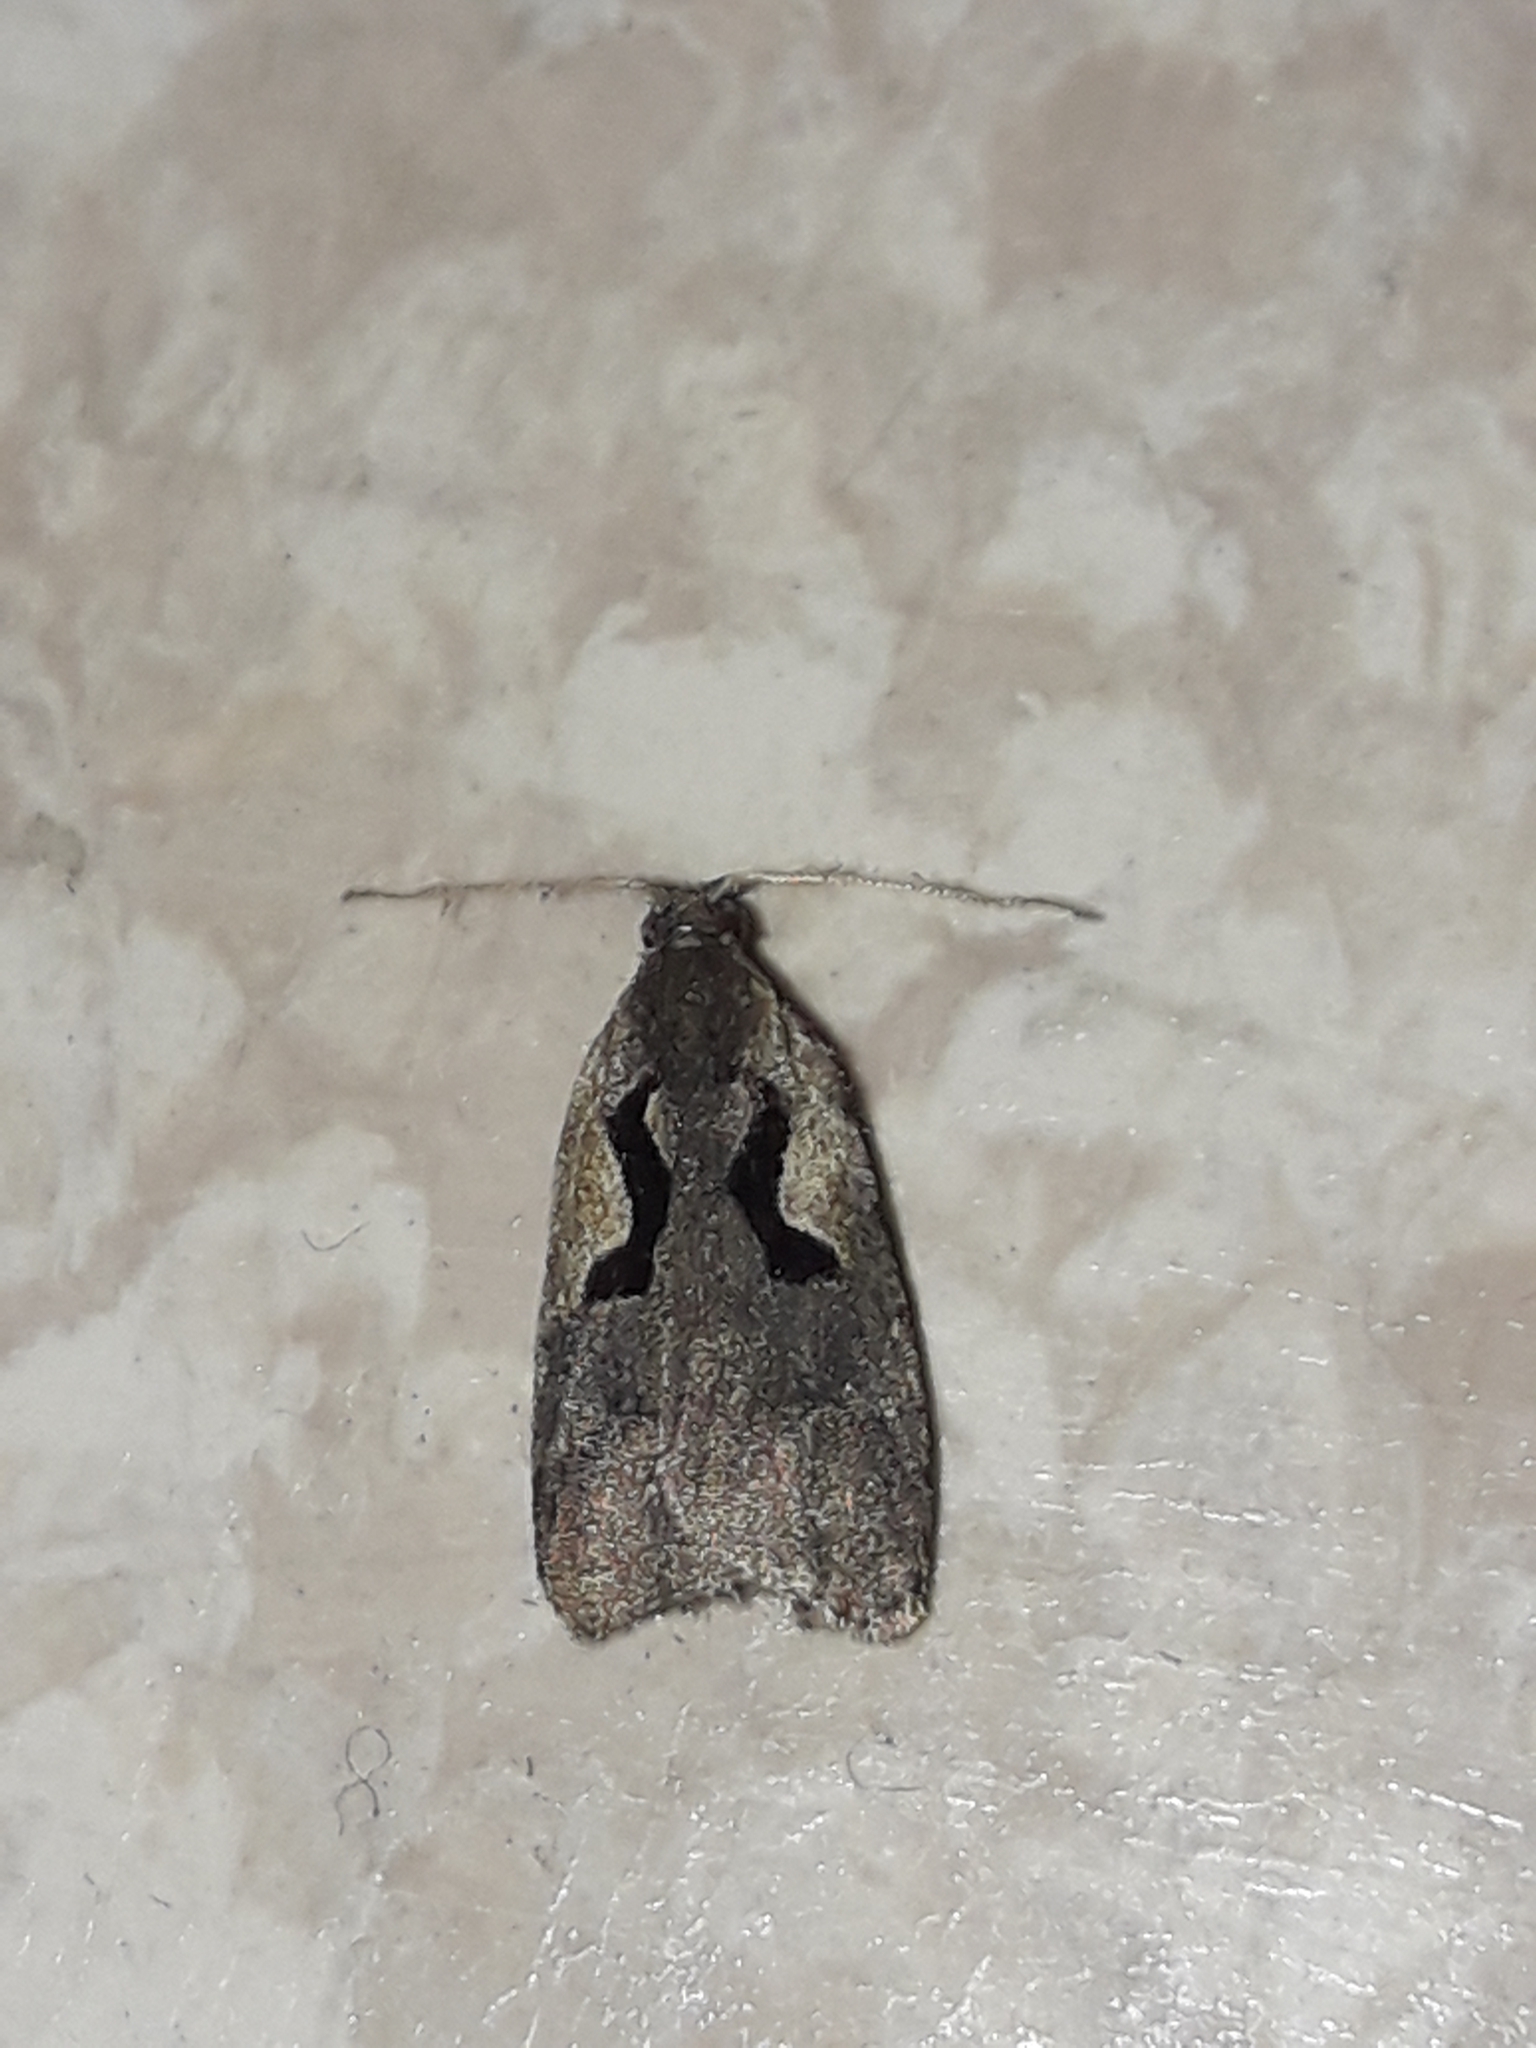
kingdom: Animalia
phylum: Arthropoda
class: Insecta
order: Lepidoptera
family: Tortricidae
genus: Cnephasia
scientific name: Cnephasia jactatana
